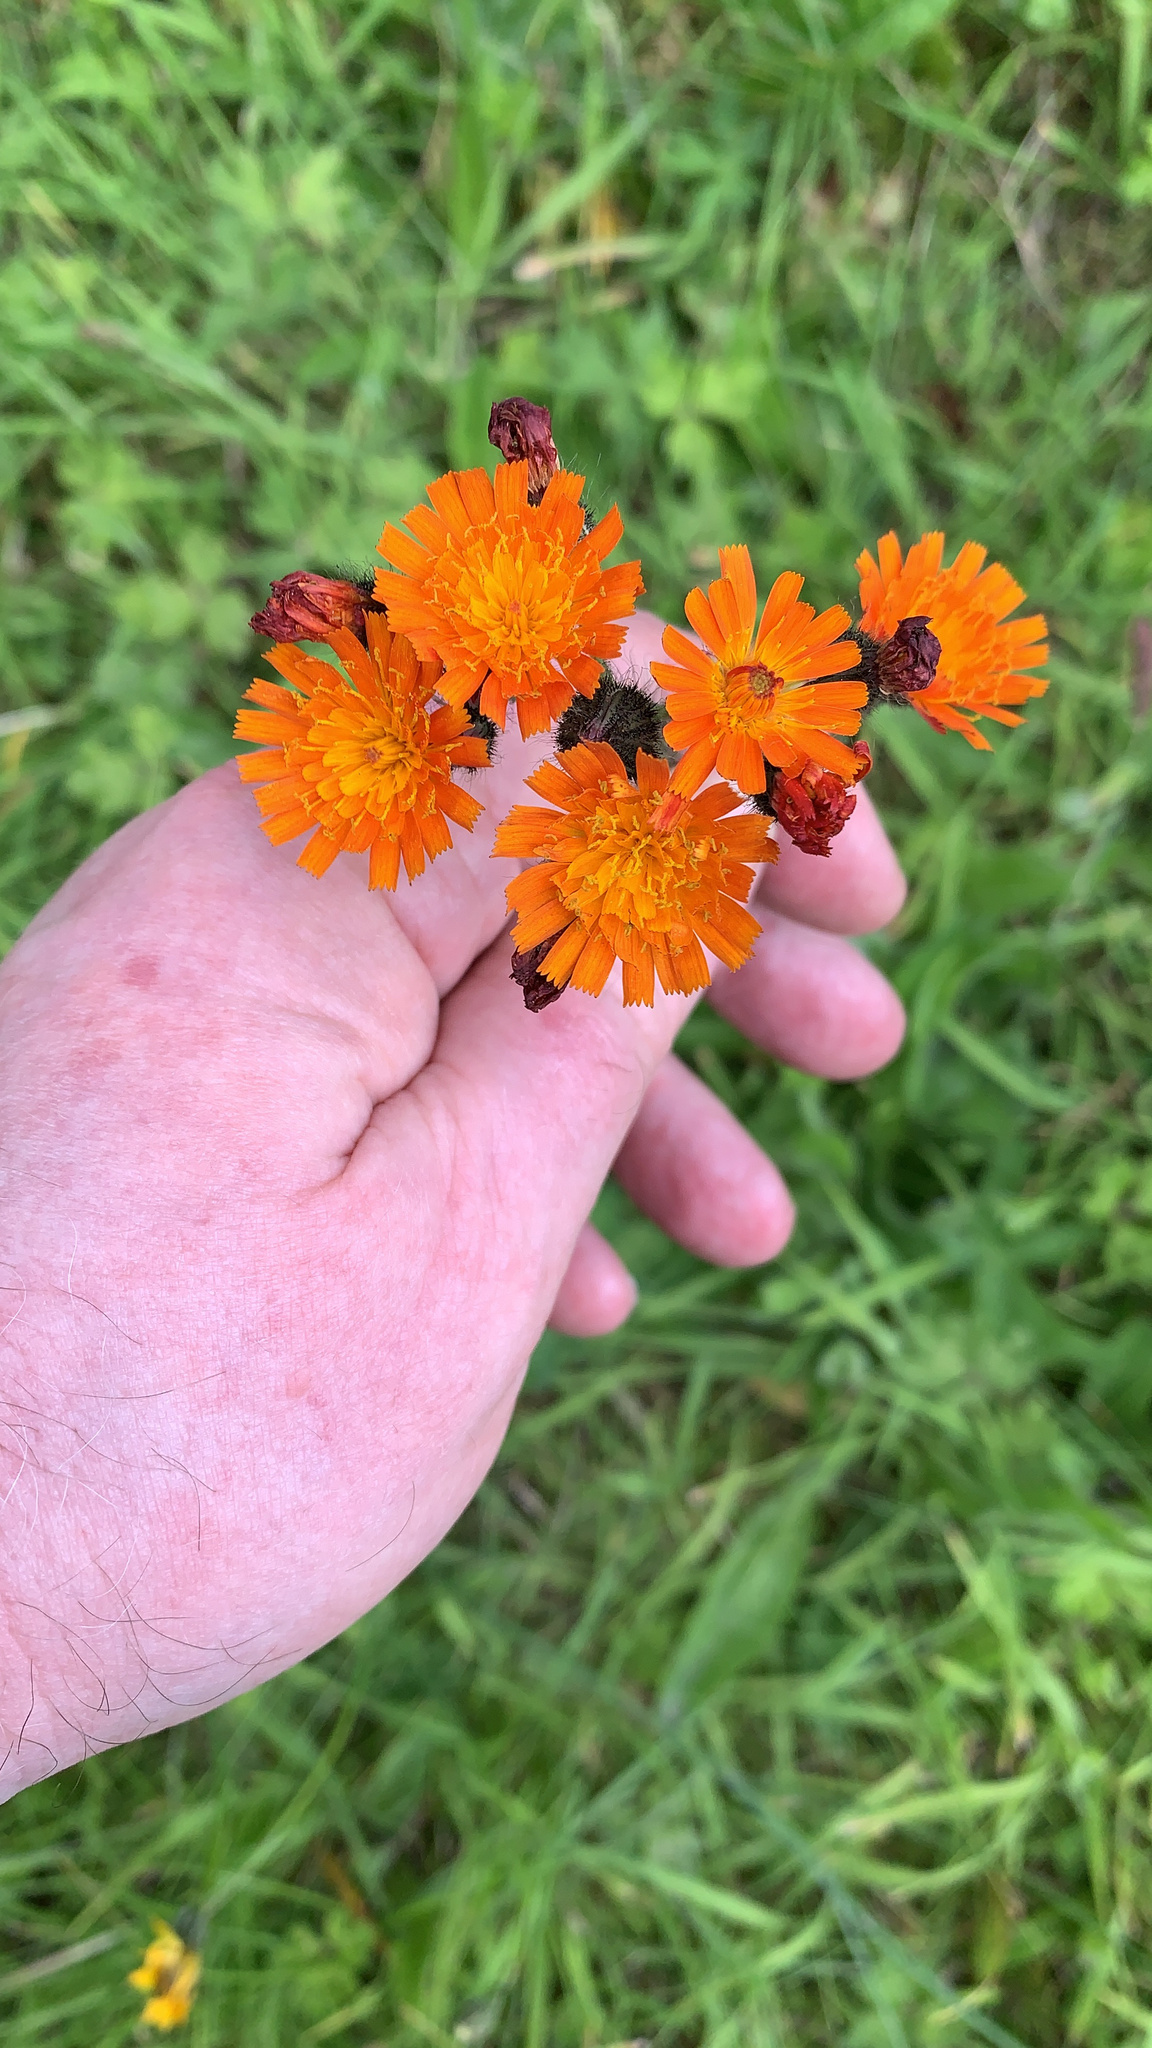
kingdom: Plantae
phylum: Tracheophyta
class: Magnoliopsida
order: Asterales
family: Asteraceae
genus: Pilosella
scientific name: Pilosella aurantiaca
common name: Fox-and-cubs
